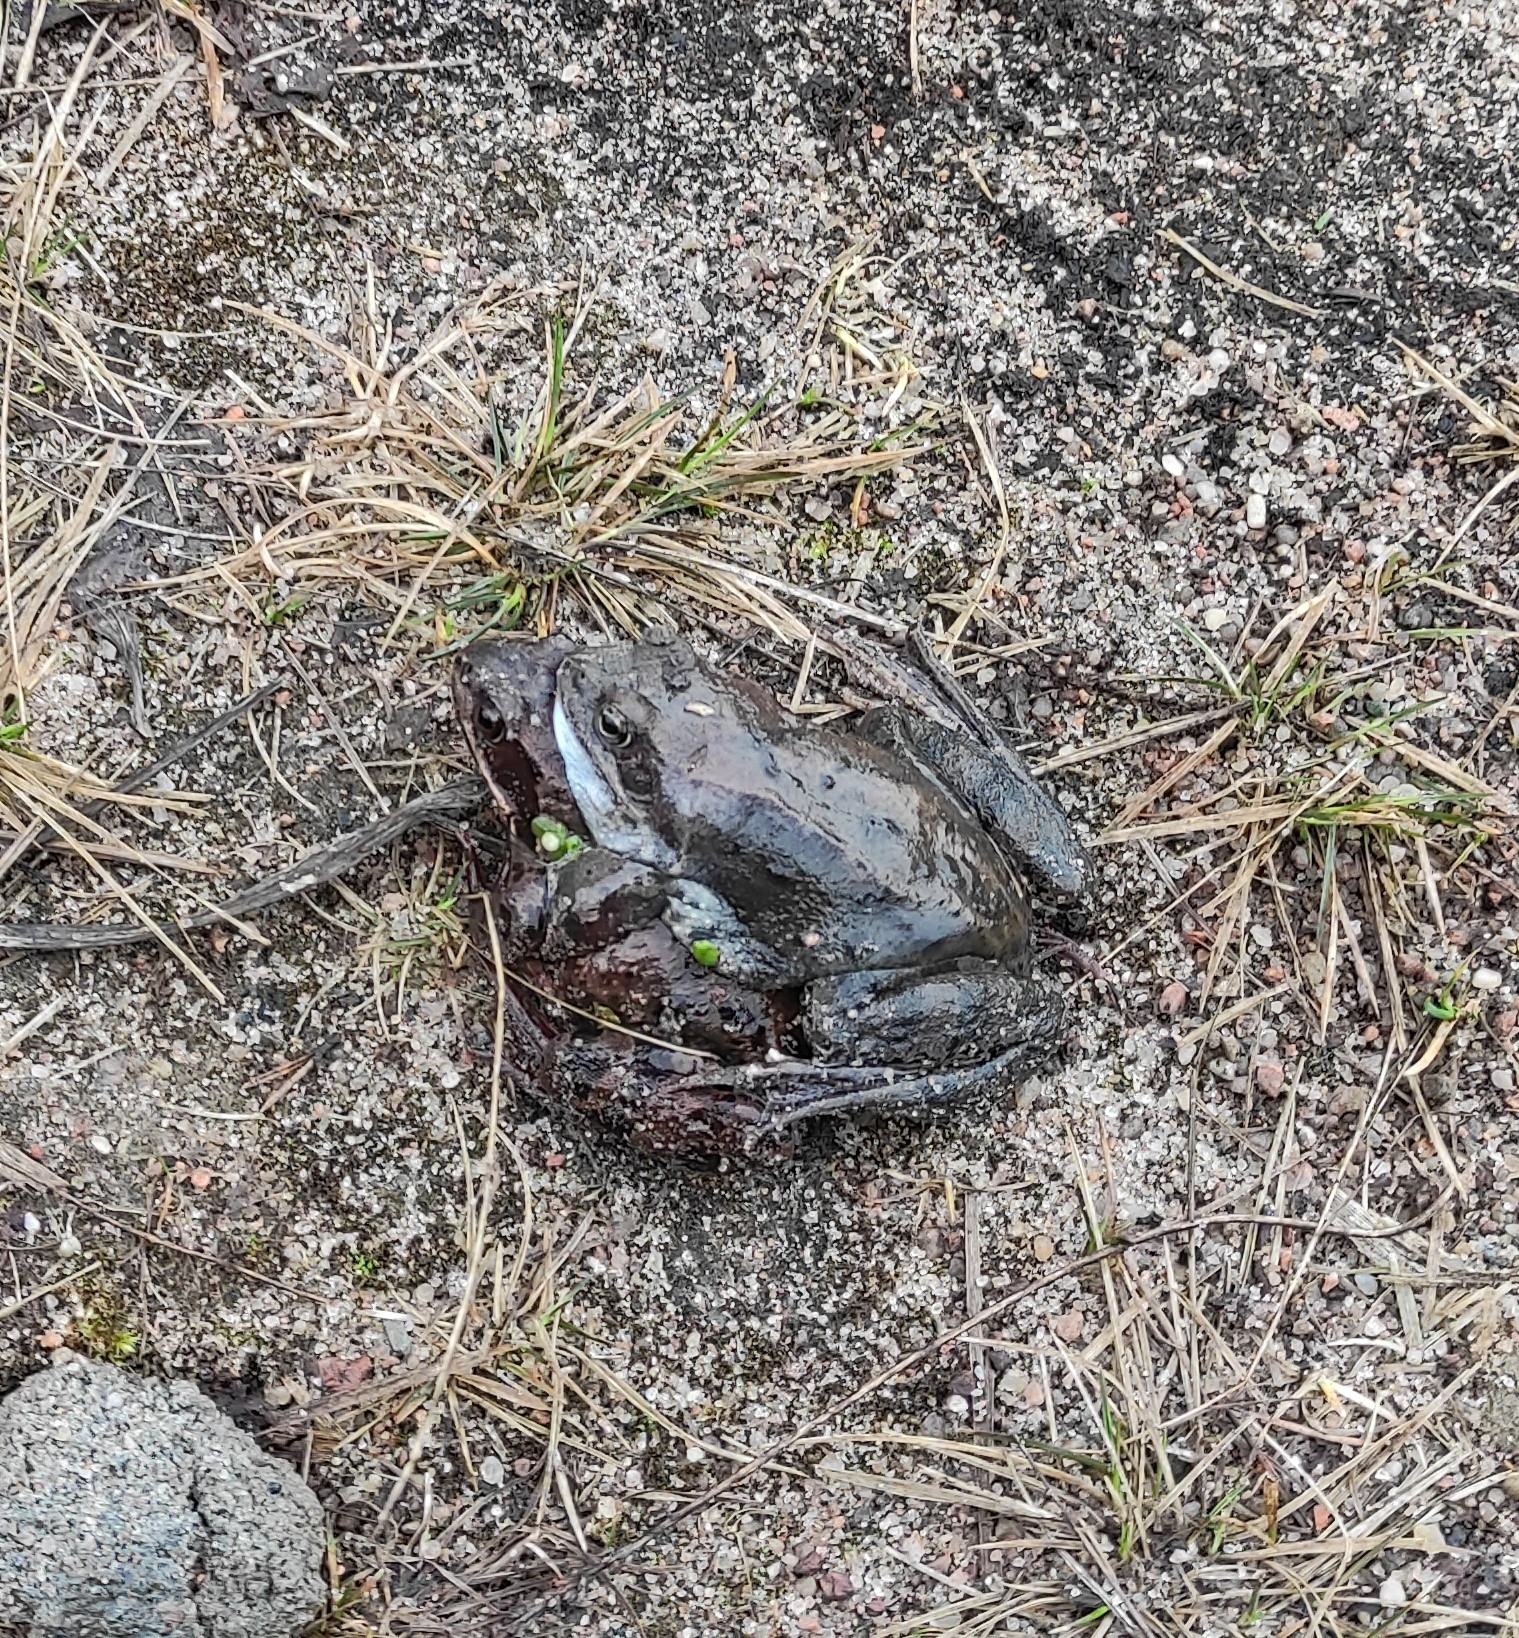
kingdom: Animalia
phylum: Chordata
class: Amphibia
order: Anura
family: Ranidae
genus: Rana
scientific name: Rana temporaria
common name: Common frog
